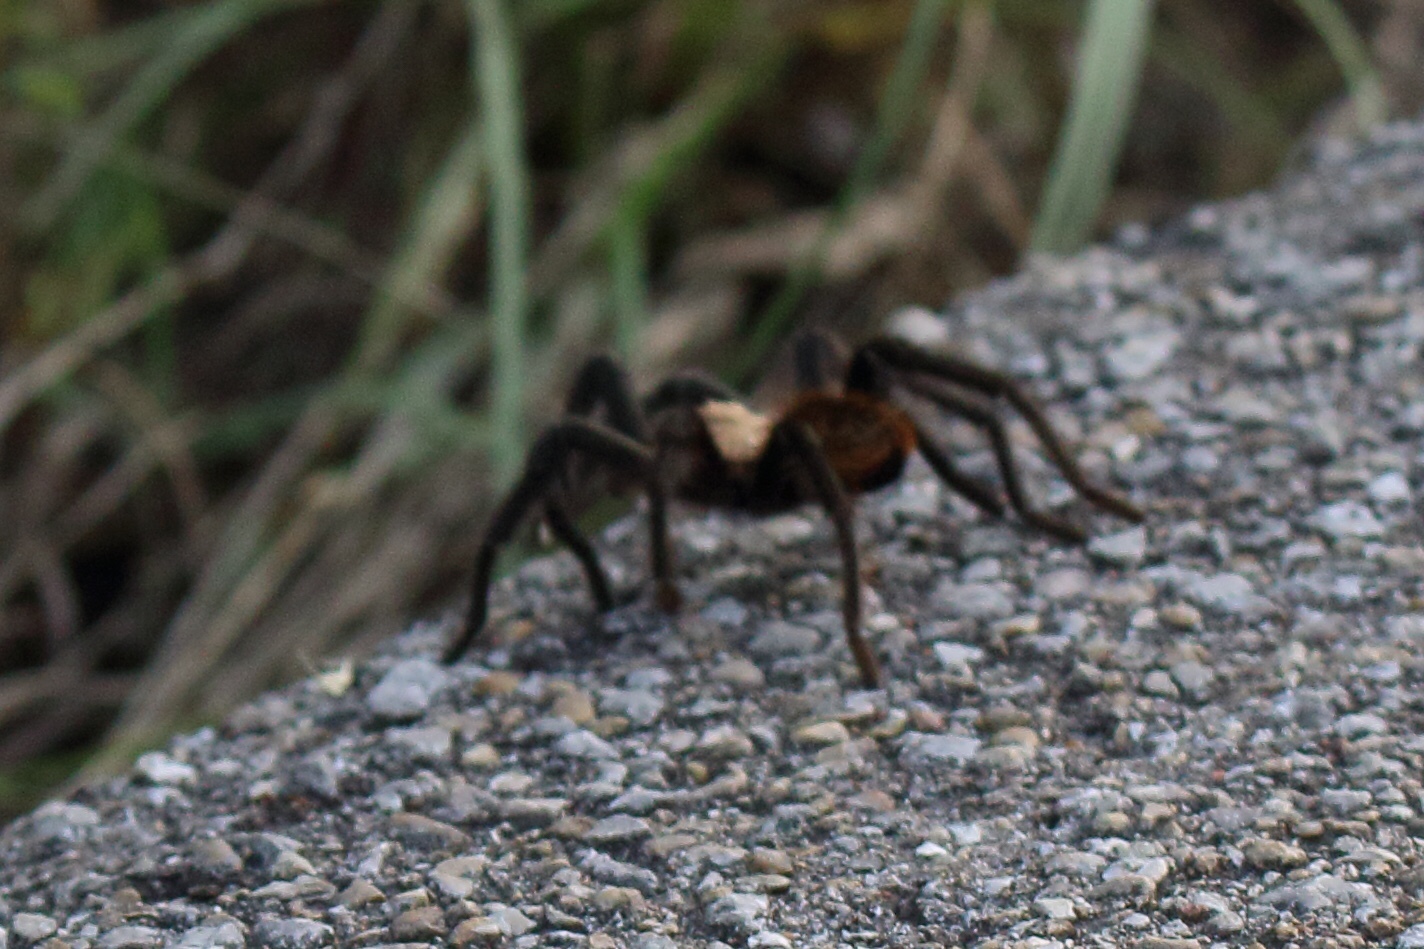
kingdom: Animalia
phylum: Arthropoda
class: Arachnida
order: Araneae
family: Theraphosidae
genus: Aphonopelma
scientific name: Aphonopelma hentzi
